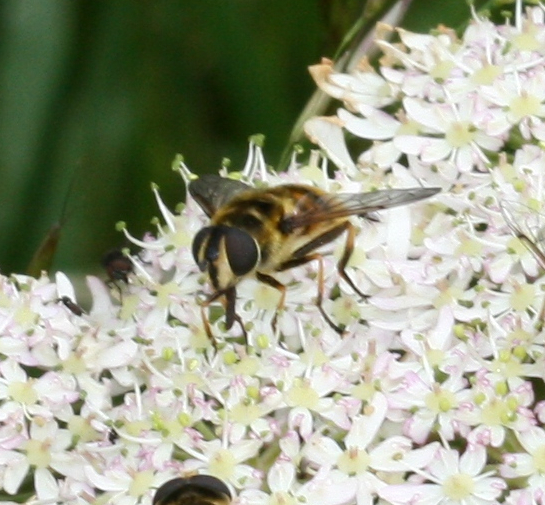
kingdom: Animalia
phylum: Arthropoda
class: Insecta
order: Diptera
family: Syrphidae
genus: Myathropa
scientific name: Myathropa florea
